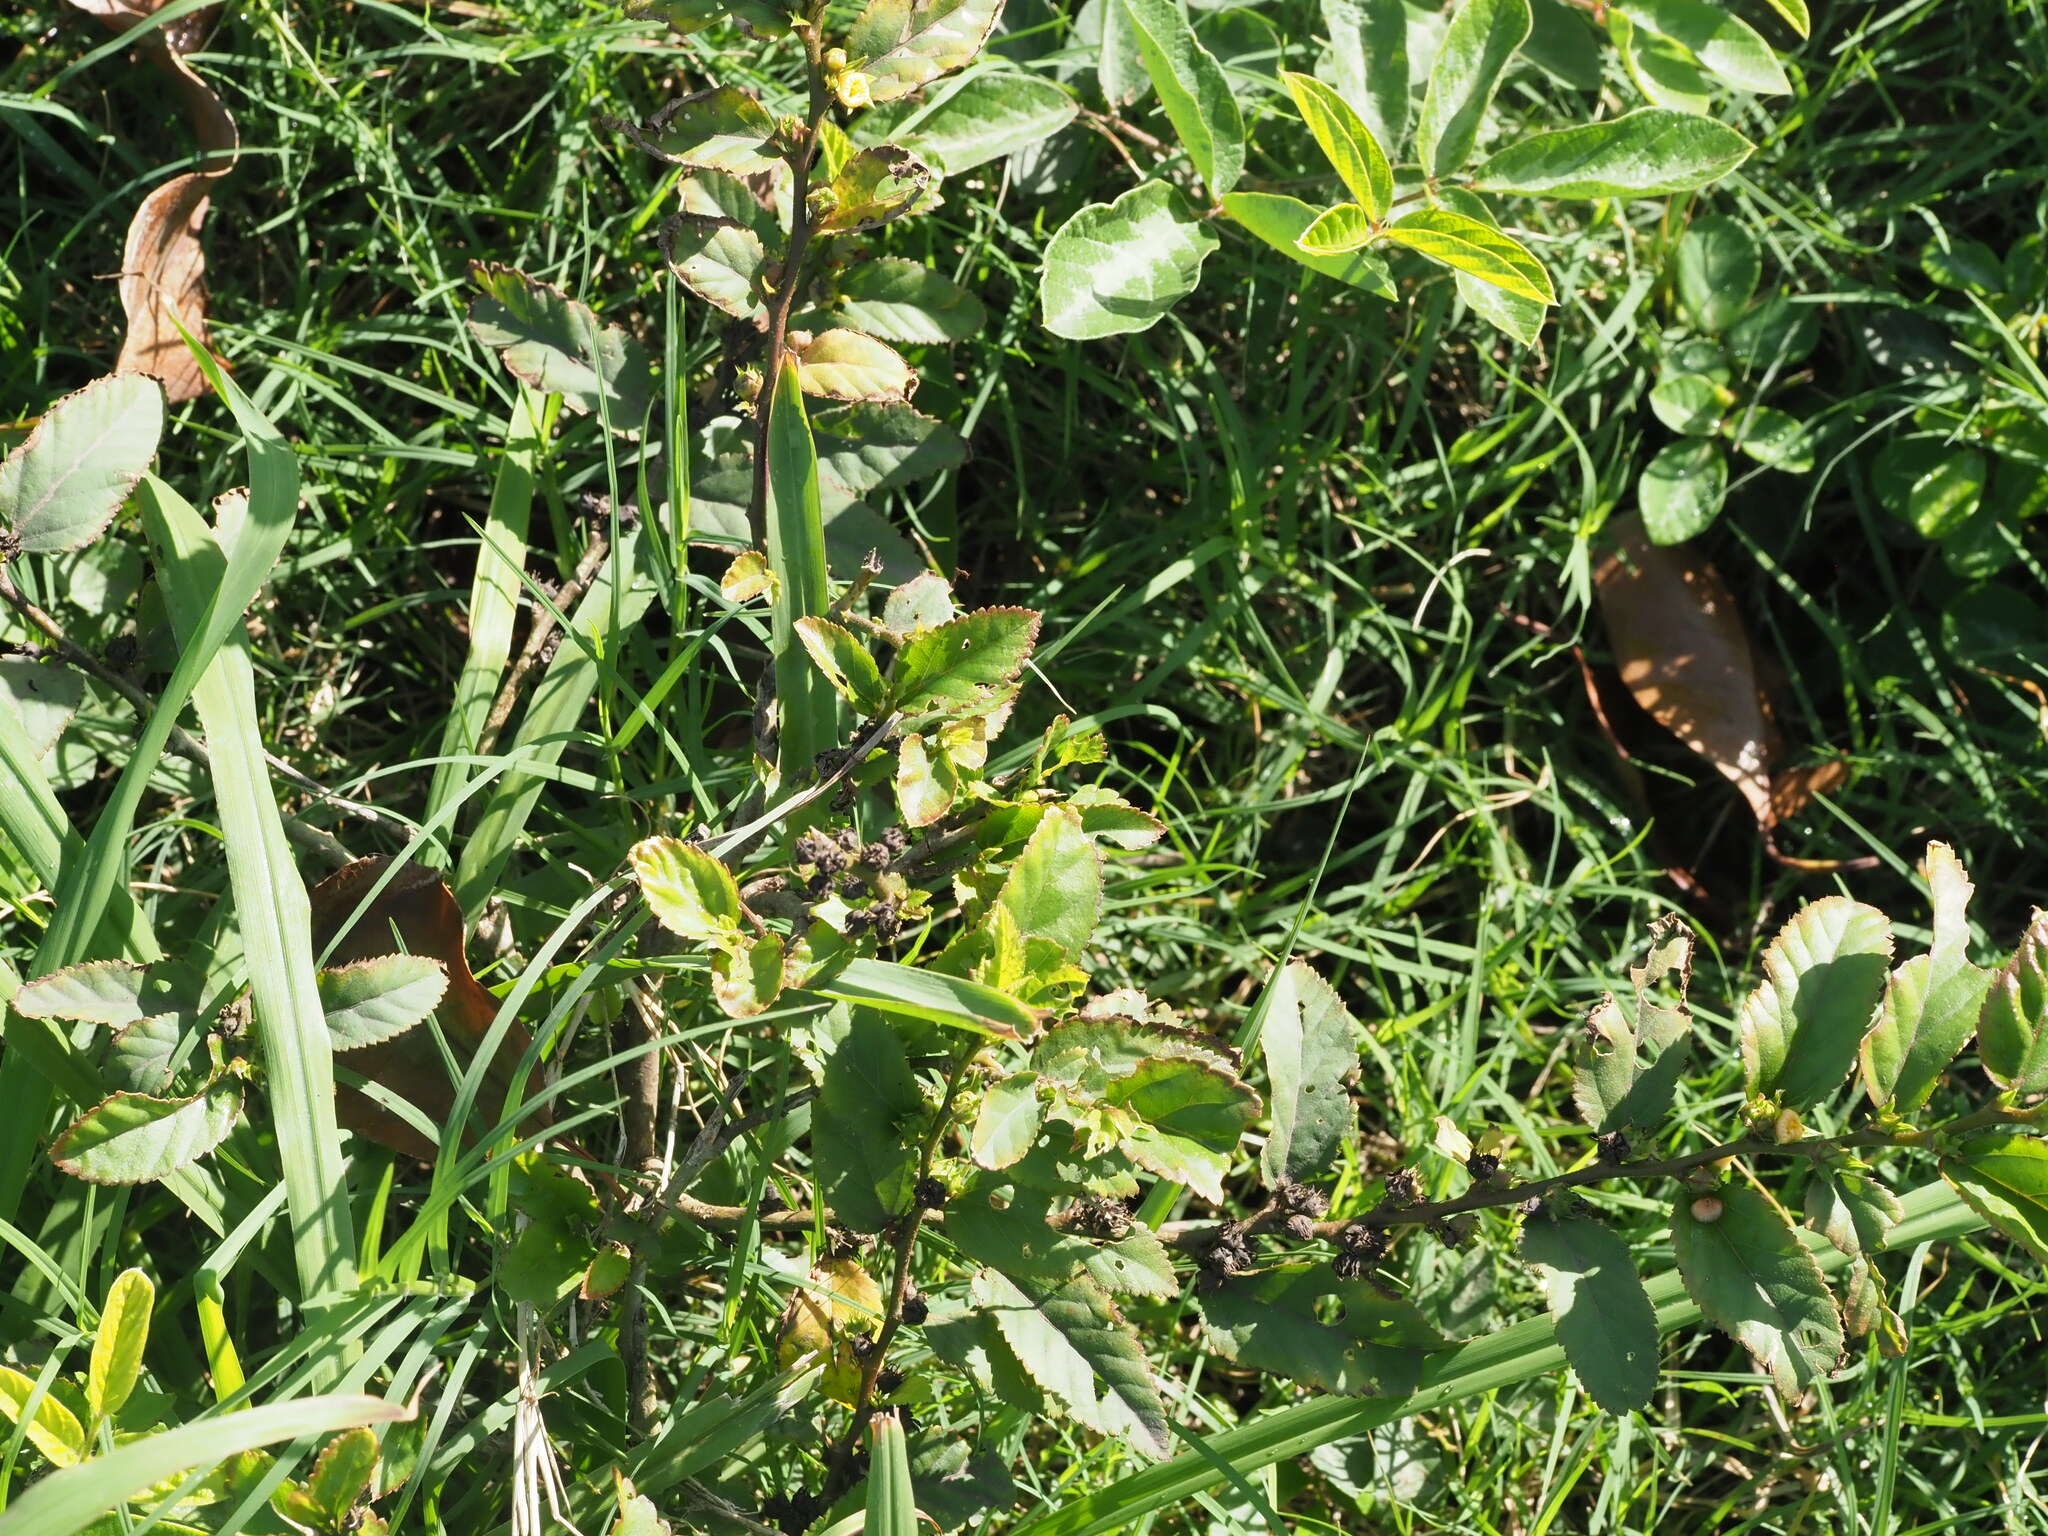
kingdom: Plantae
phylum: Tracheophyta
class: Magnoliopsida
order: Malvales
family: Malvaceae
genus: Sida
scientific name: Sida acuta
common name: Common wireweed
